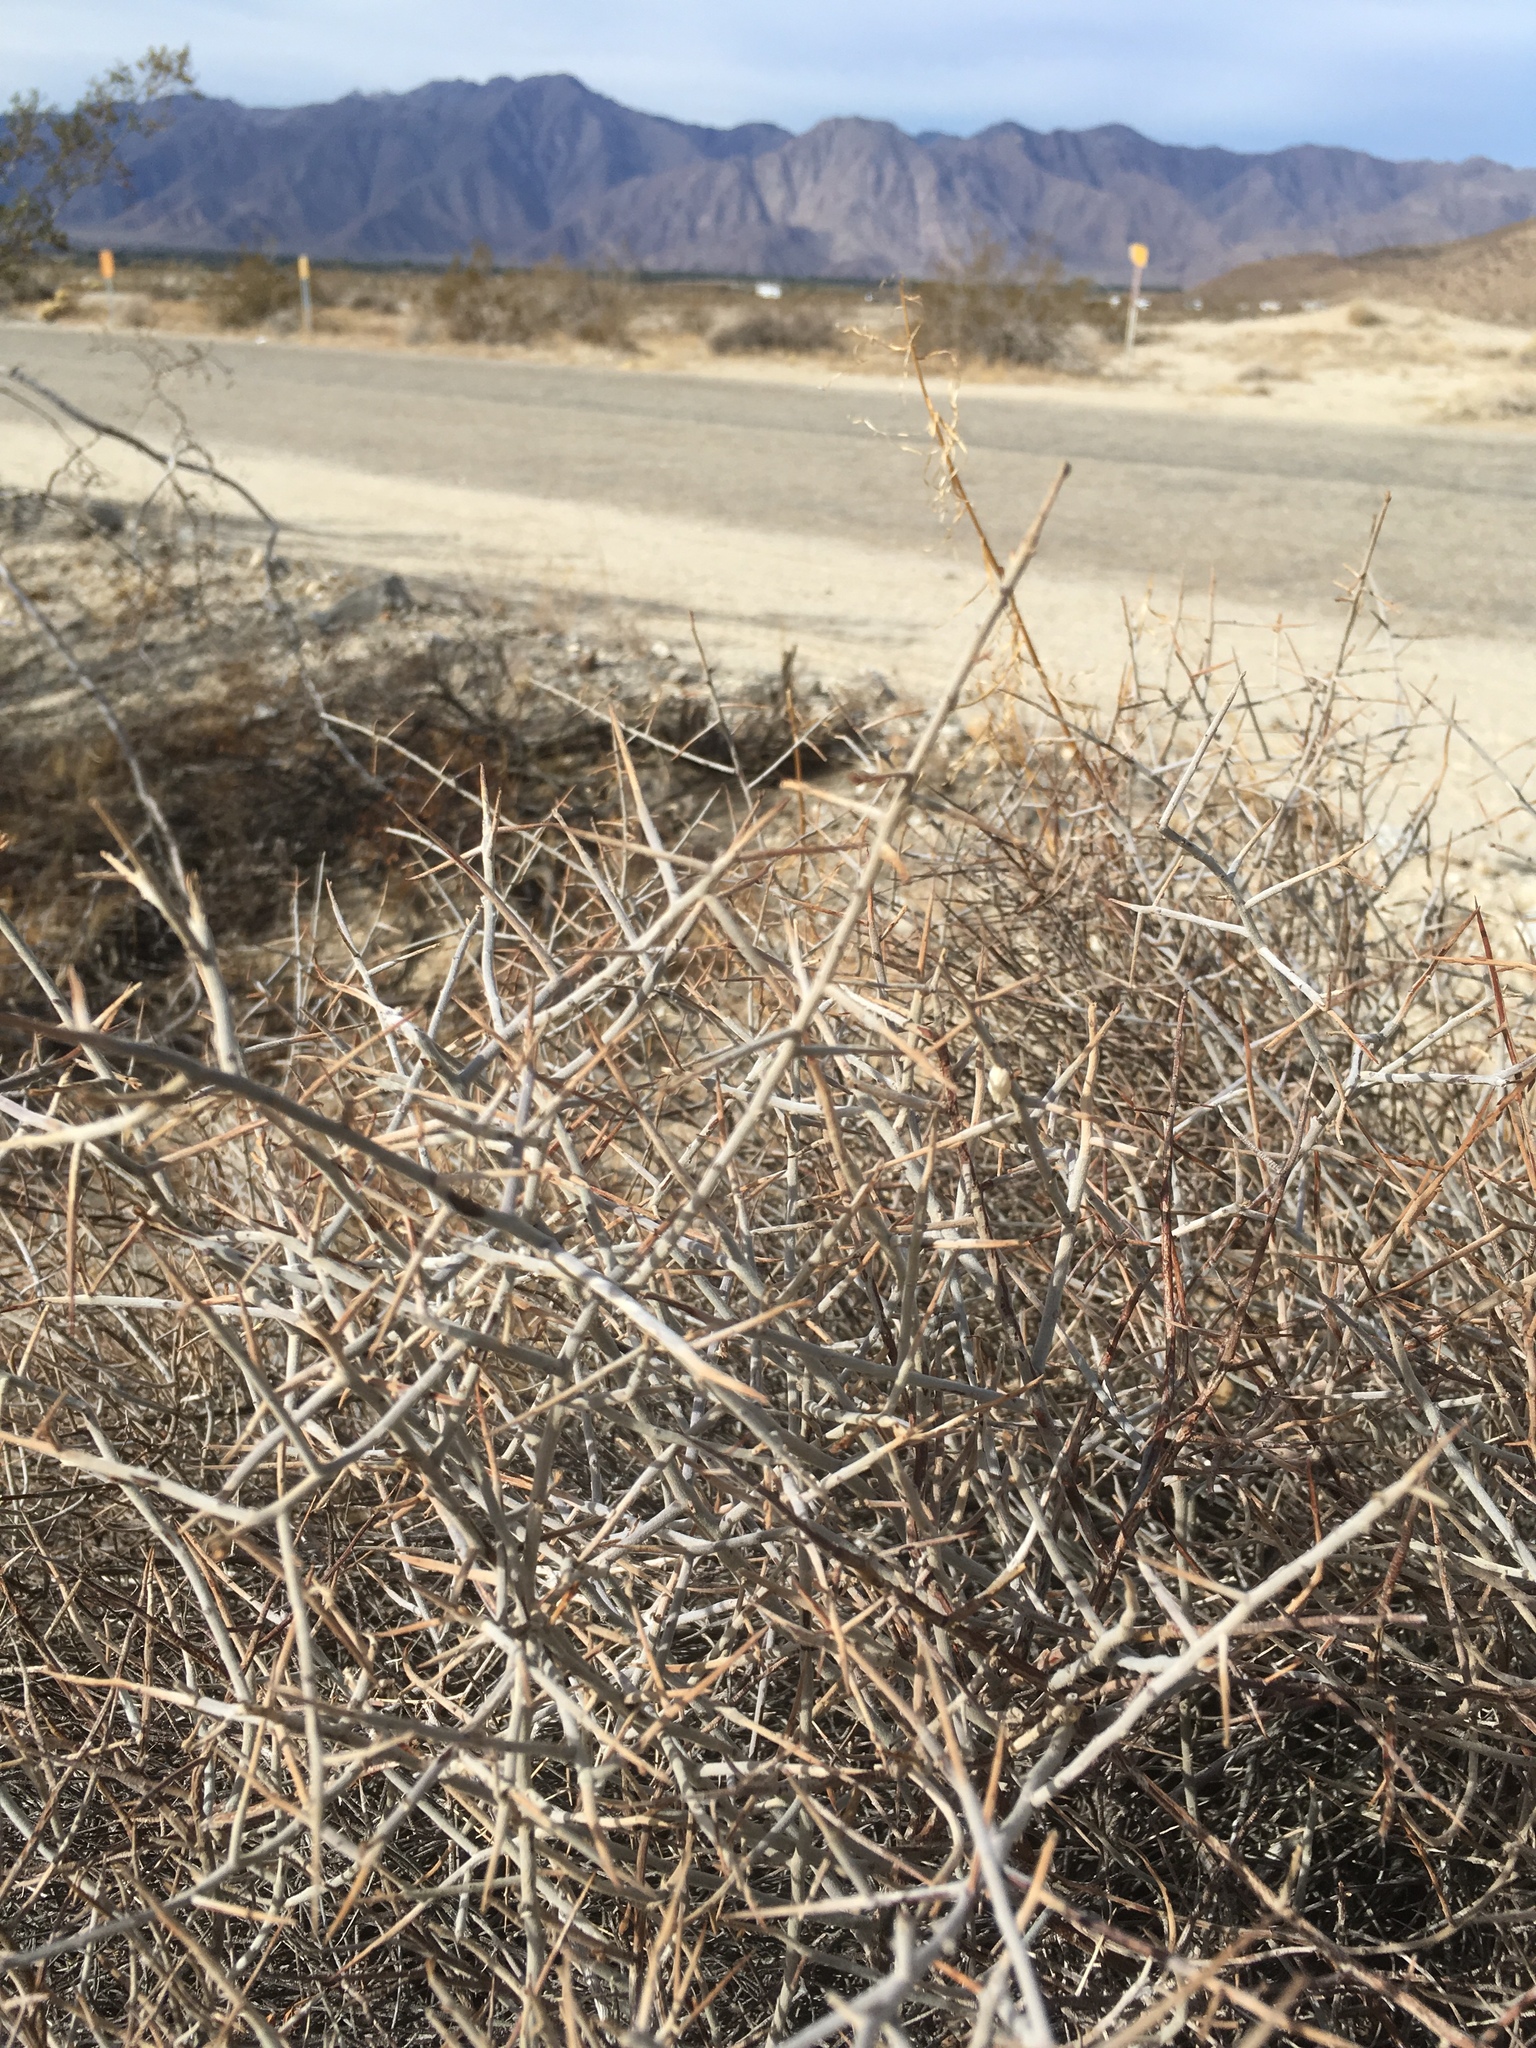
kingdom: Plantae
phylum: Tracheophyta
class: Magnoliopsida
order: Zygophyllales
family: Krameriaceae
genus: Krameria
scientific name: Krameria bicolor
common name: White ratany
